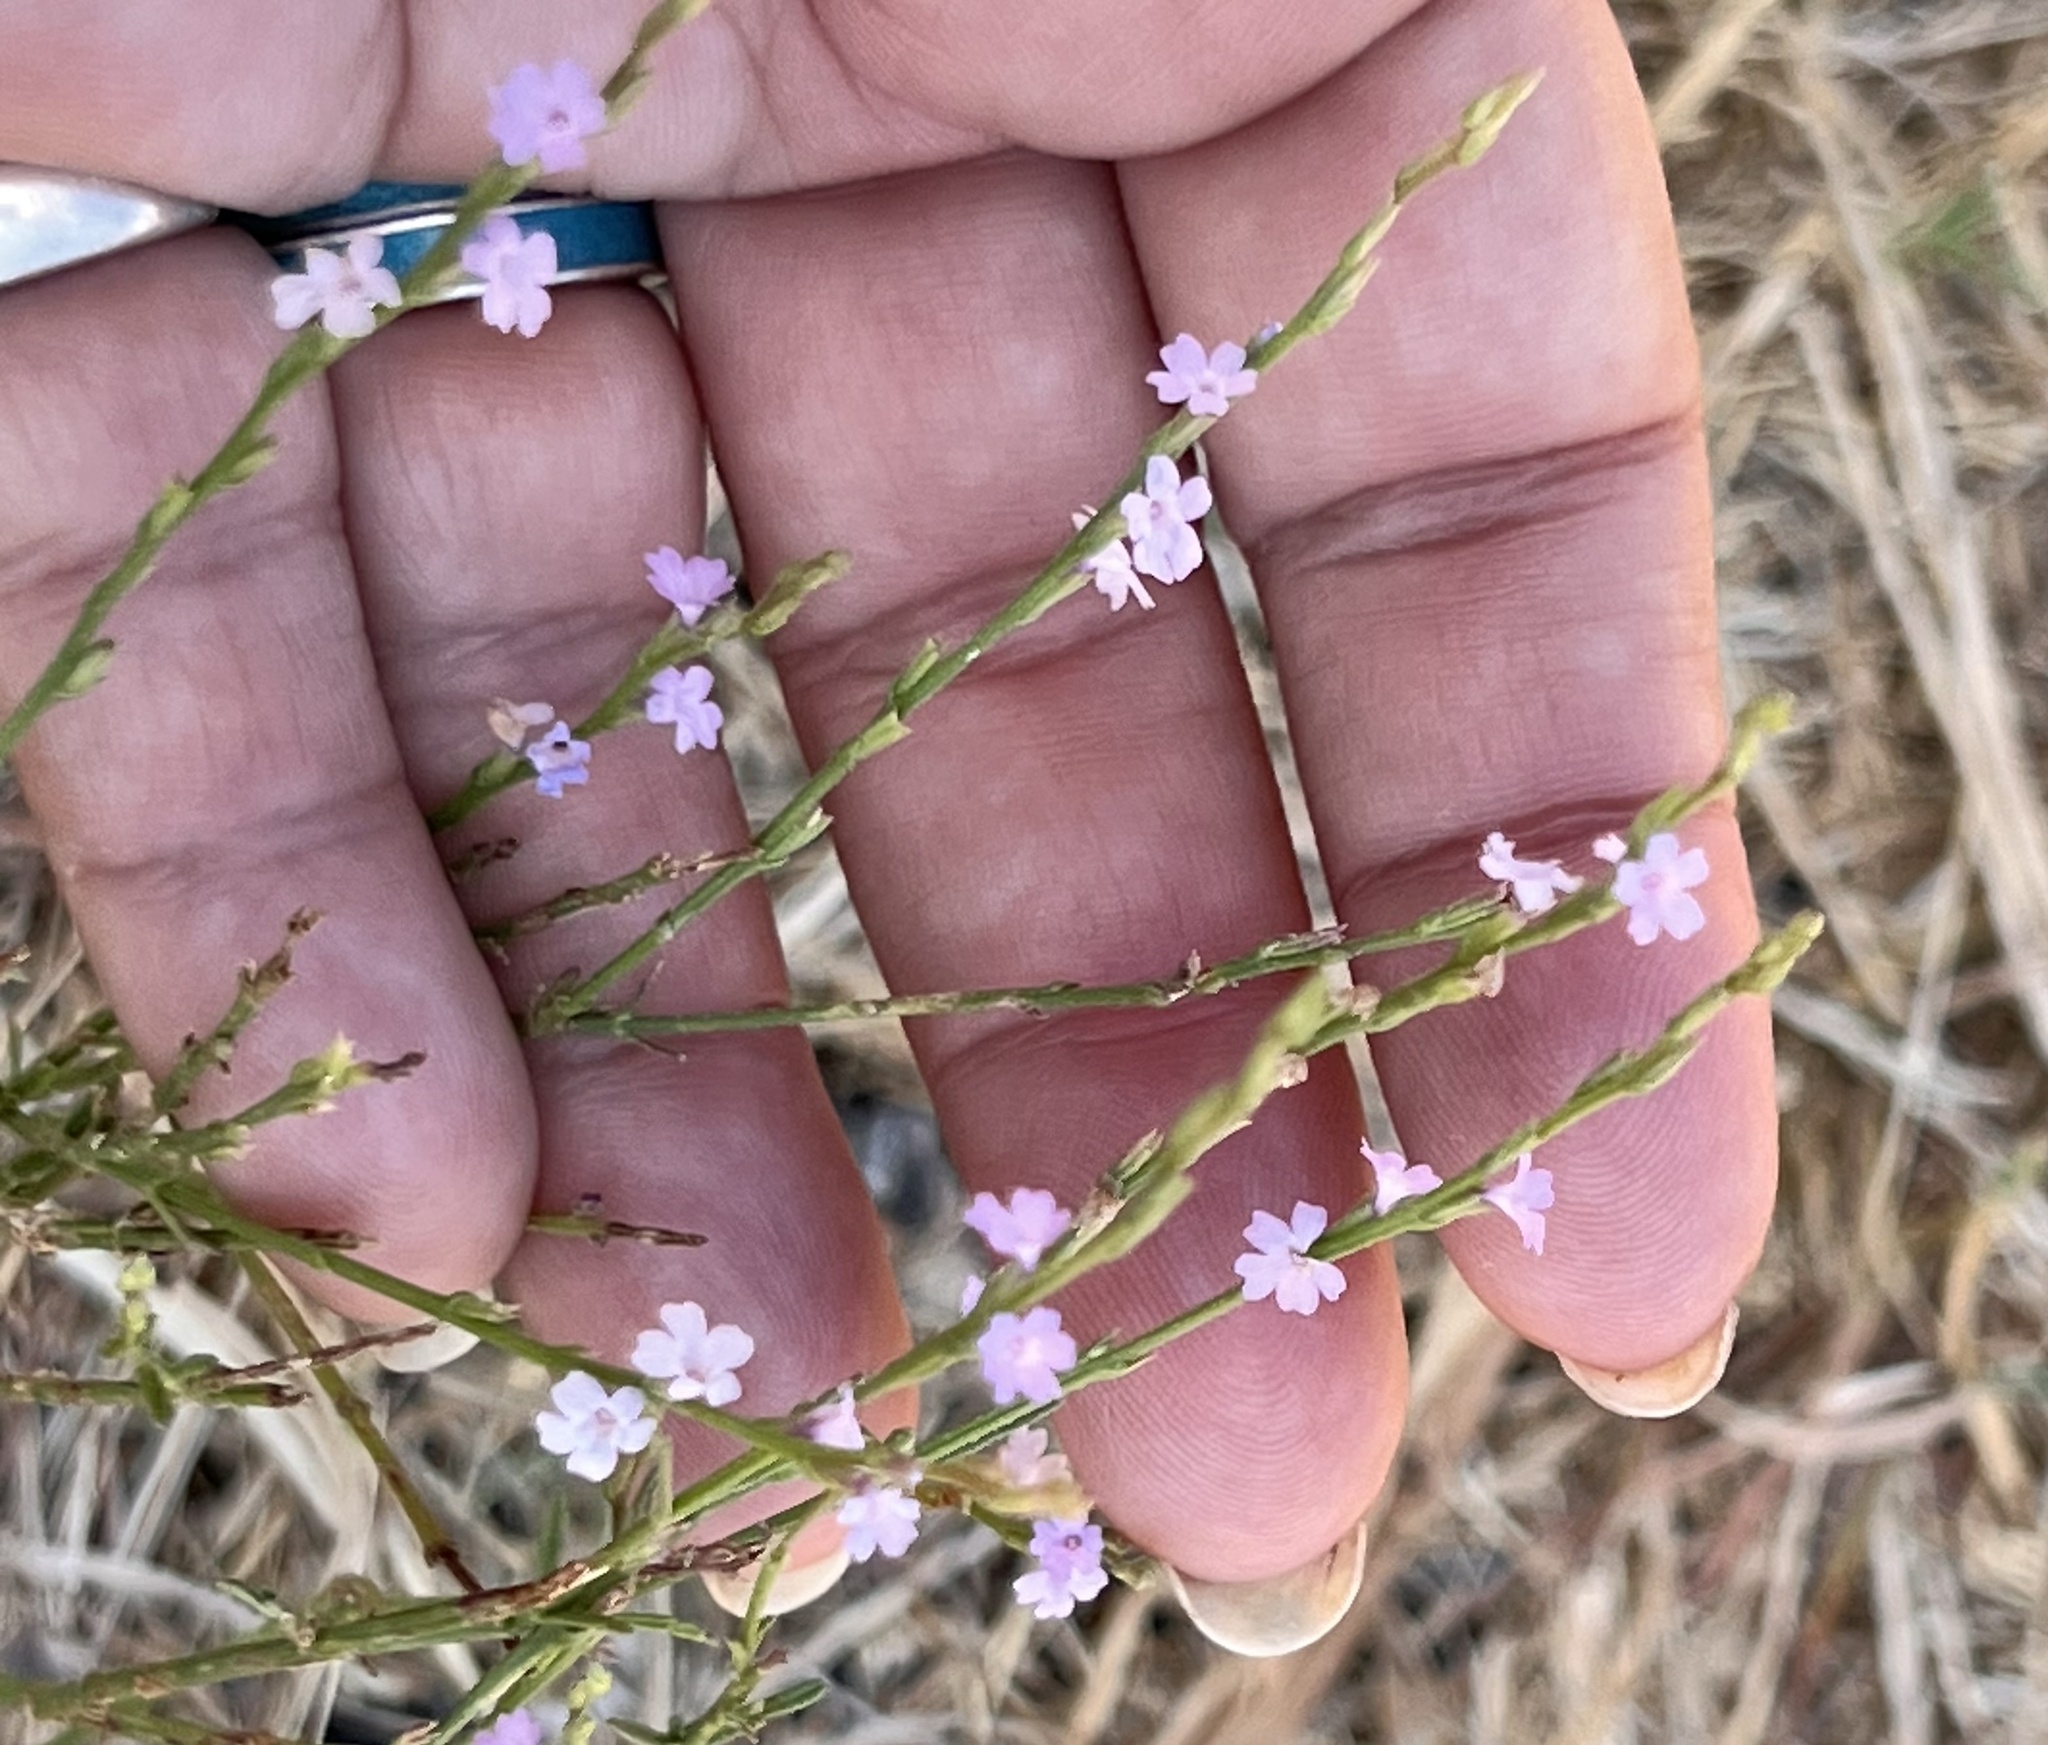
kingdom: Plantae
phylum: Tracheophyta
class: Magnoliopsida
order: Lamiales
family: Verbenaceae
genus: Verbena
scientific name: Verbena halei
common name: Texas vervain
